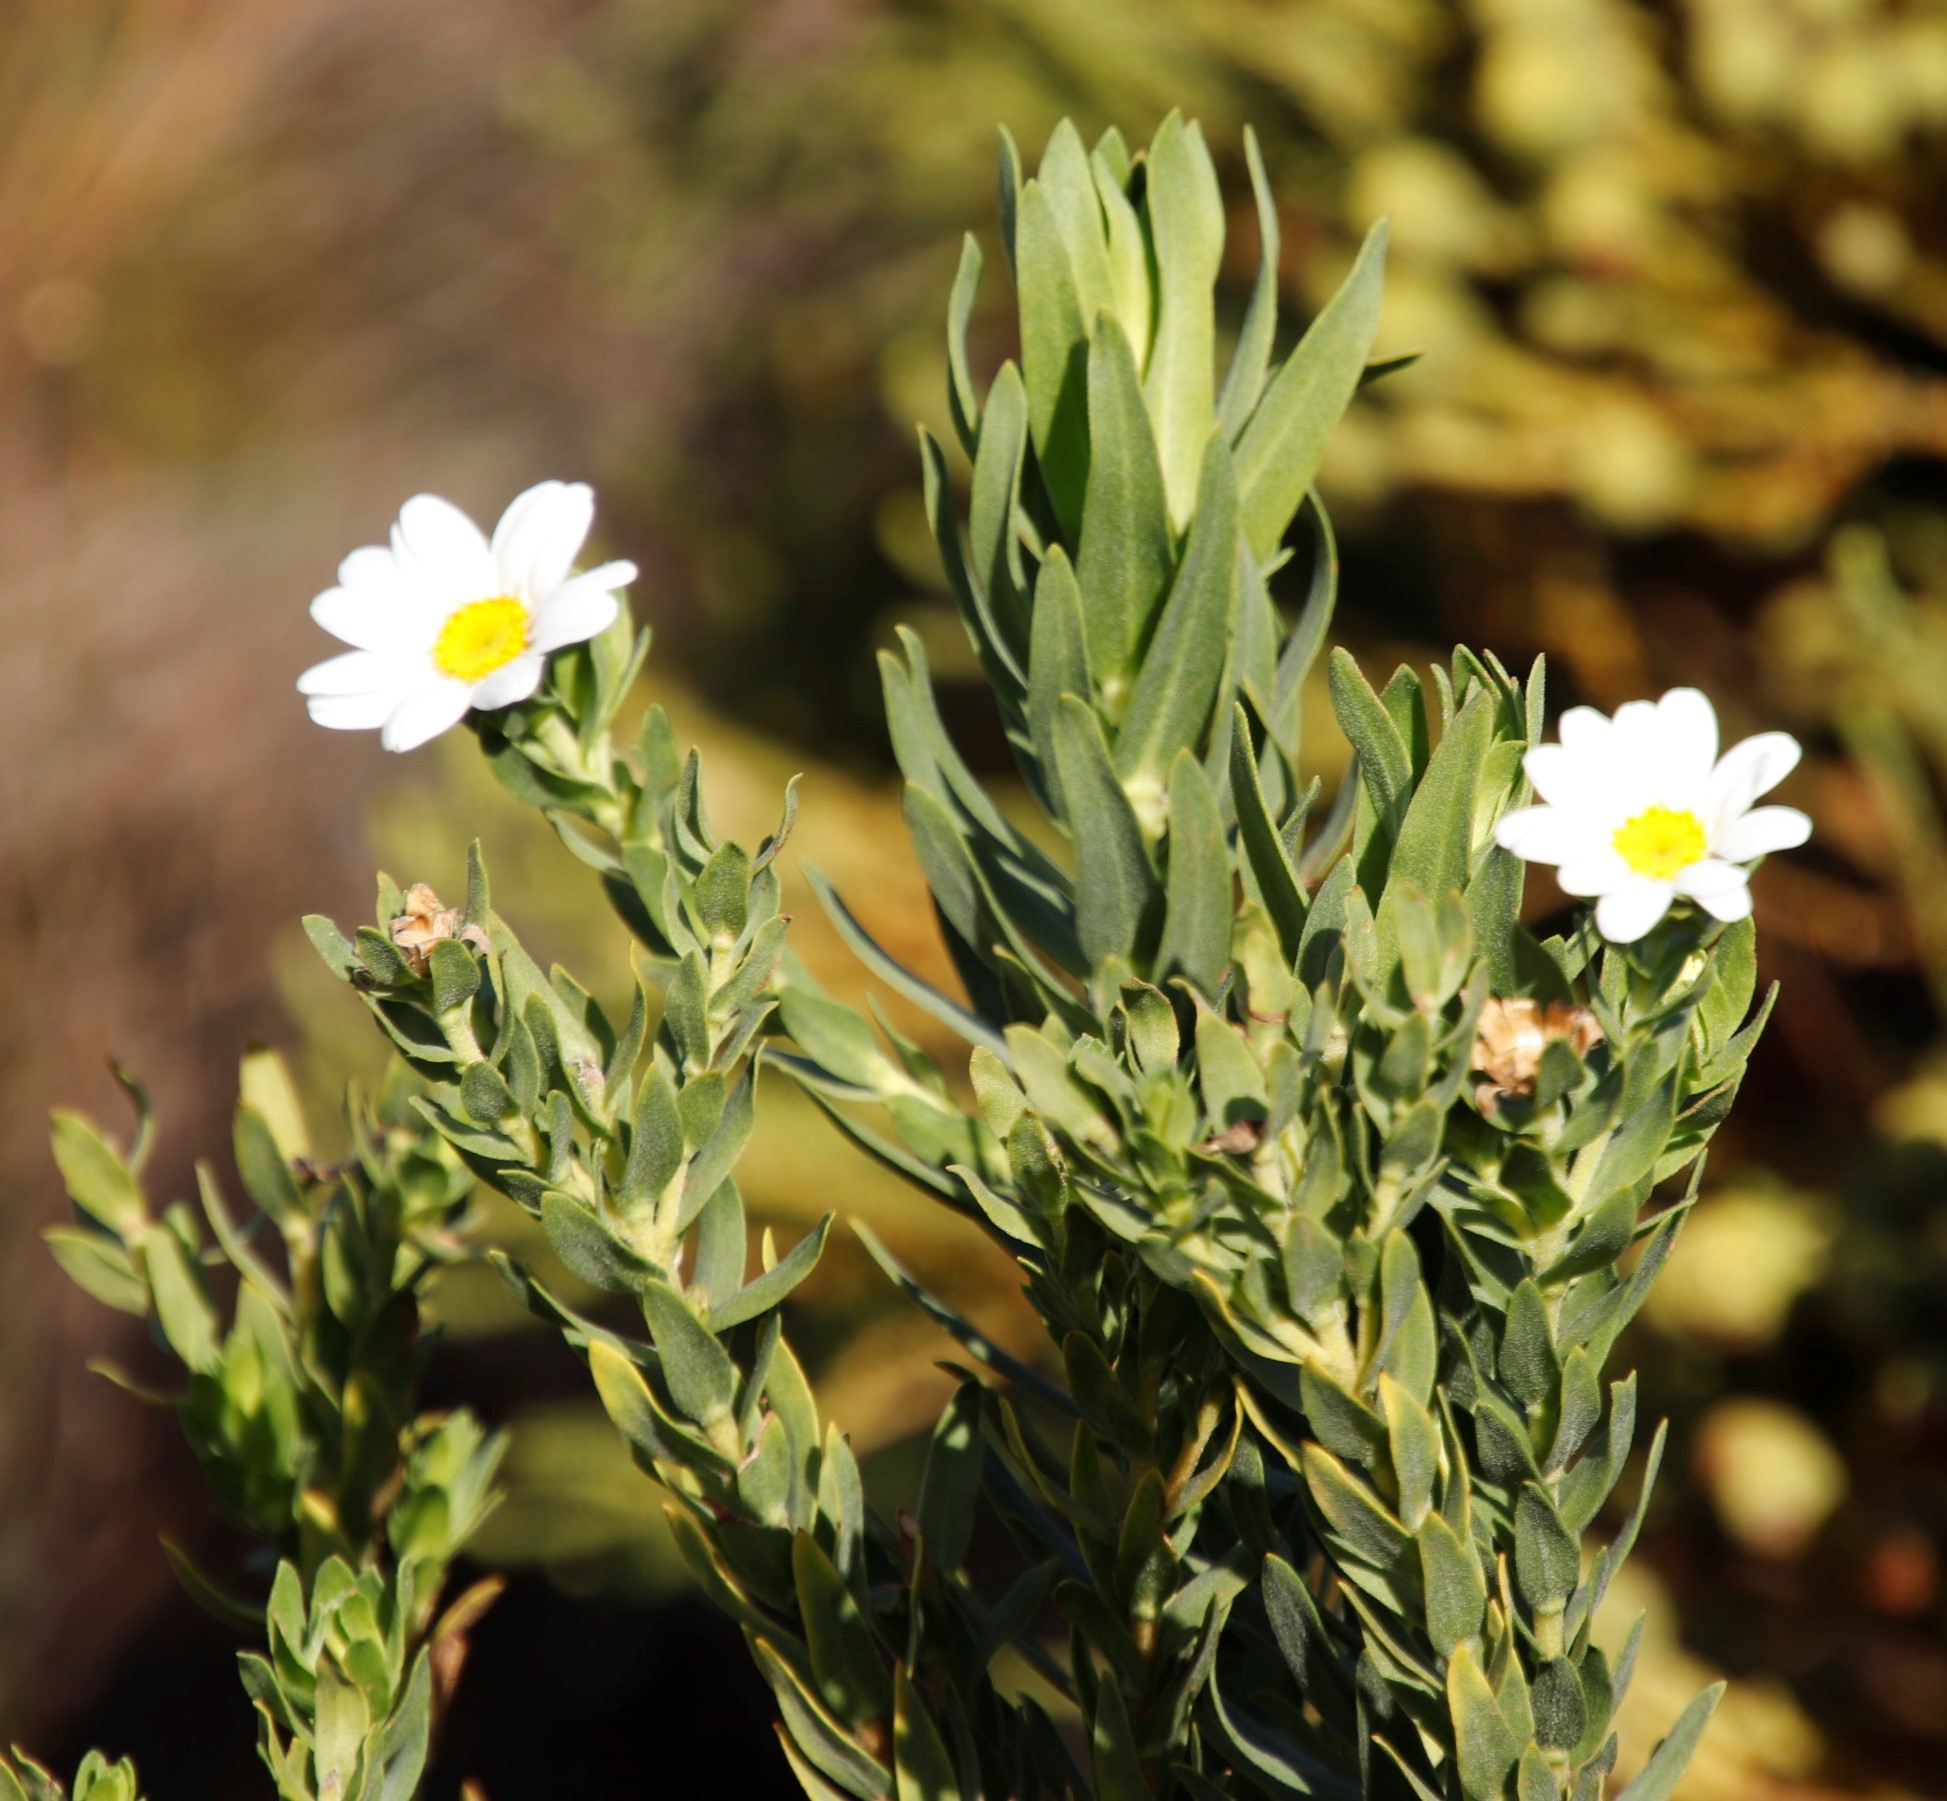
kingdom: Plantae
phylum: Tracheophyta
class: Magnoliopsida
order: Asterales
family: Asteraceae
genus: Osmitopsis
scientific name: Osmitopsis asteriscoides
